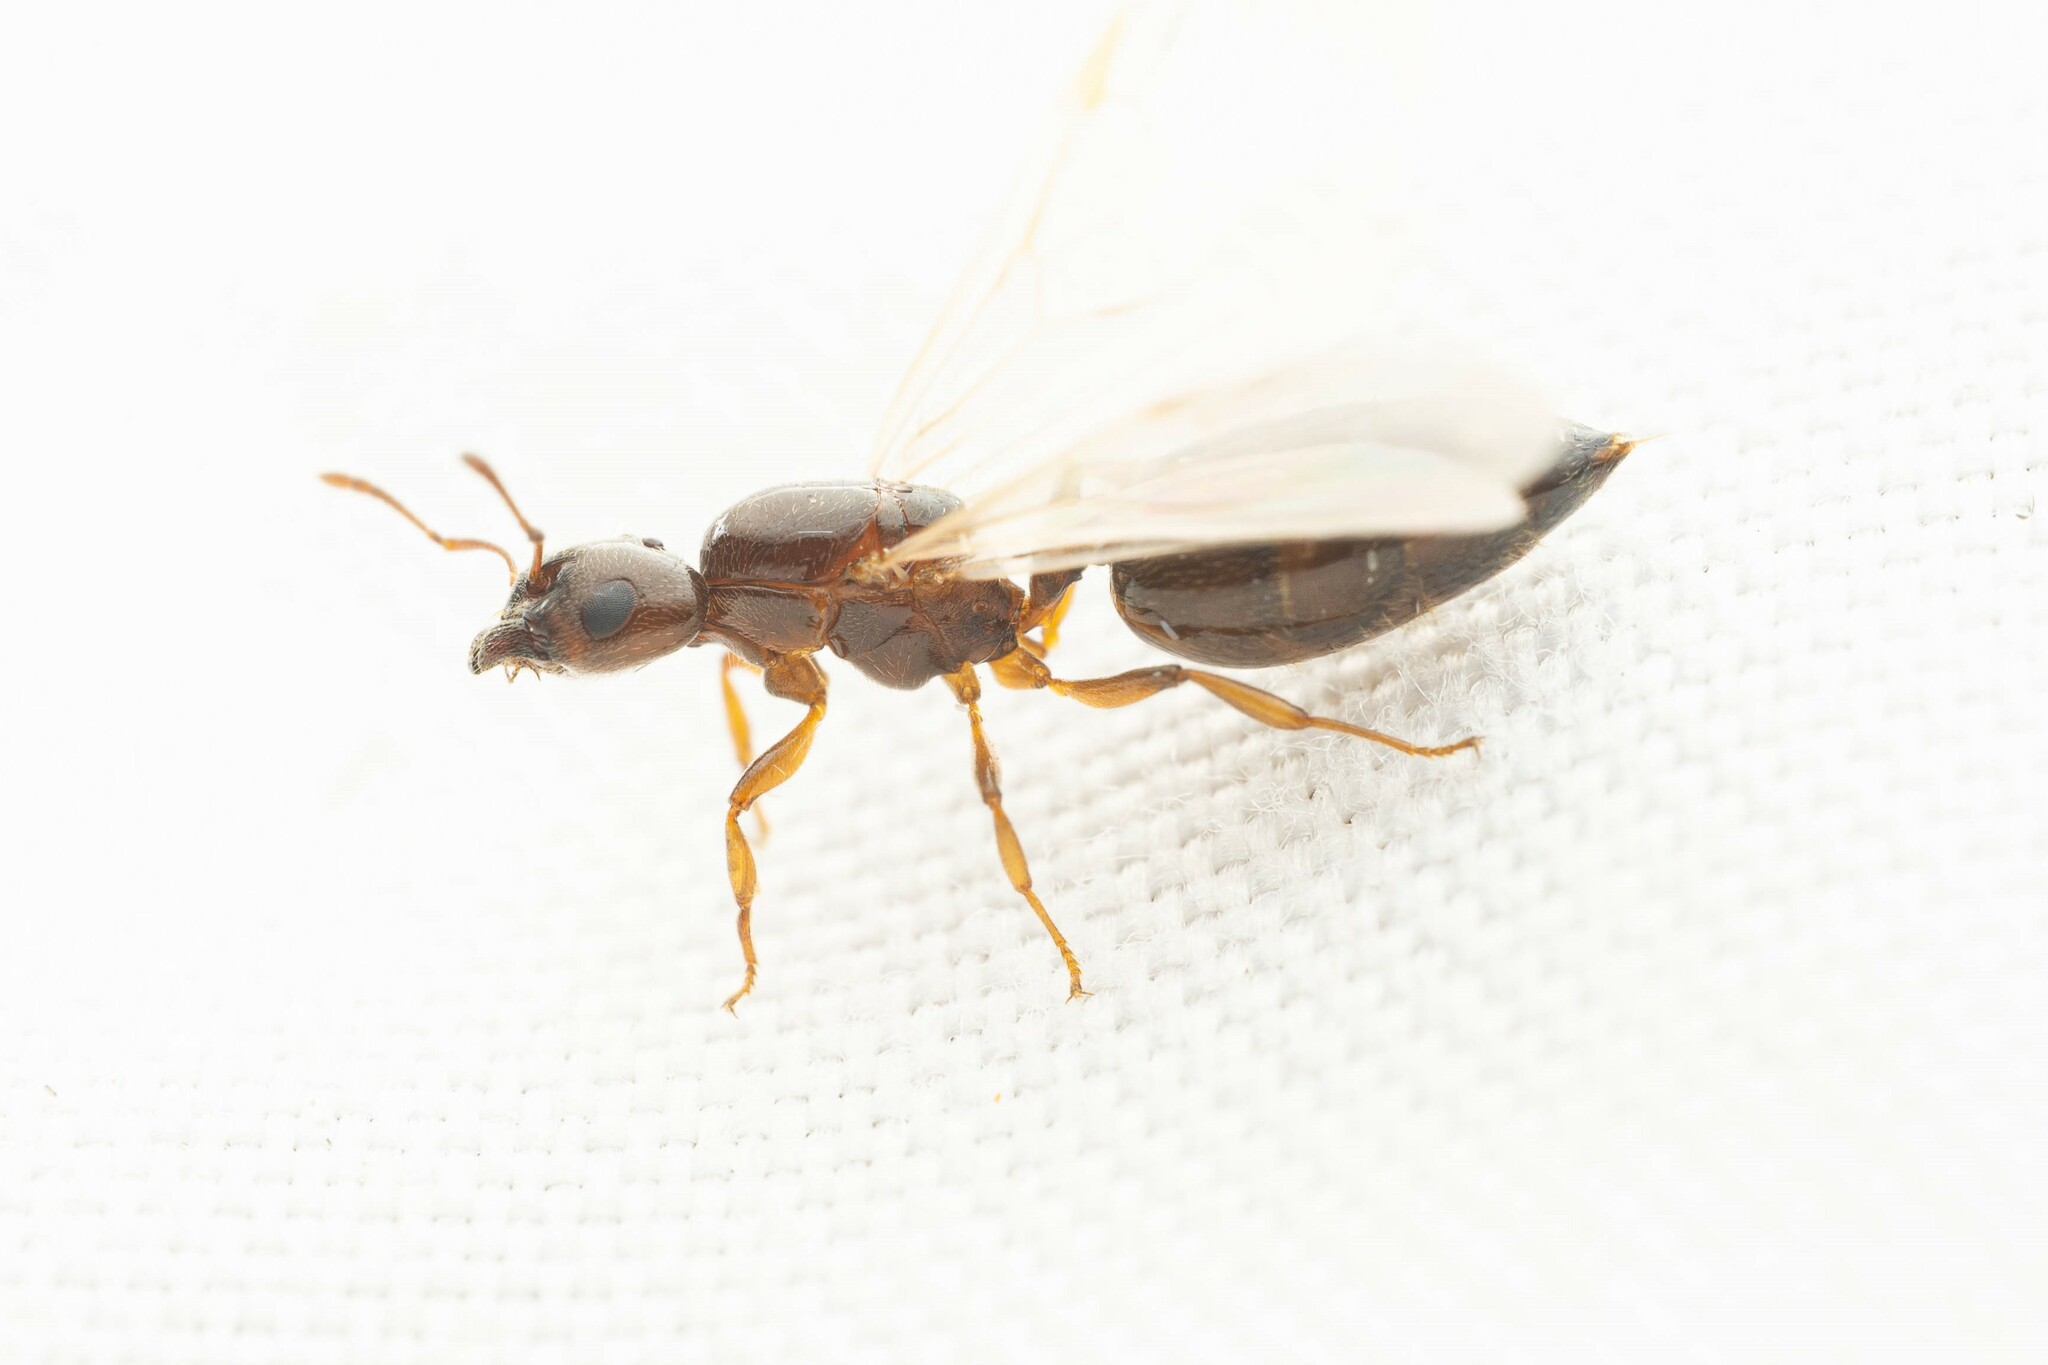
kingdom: Animalia
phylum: Arthropoda
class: Insecta
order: Hymenoptera
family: Formicidae
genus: Crematogaster
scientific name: Crematogaster torosa
